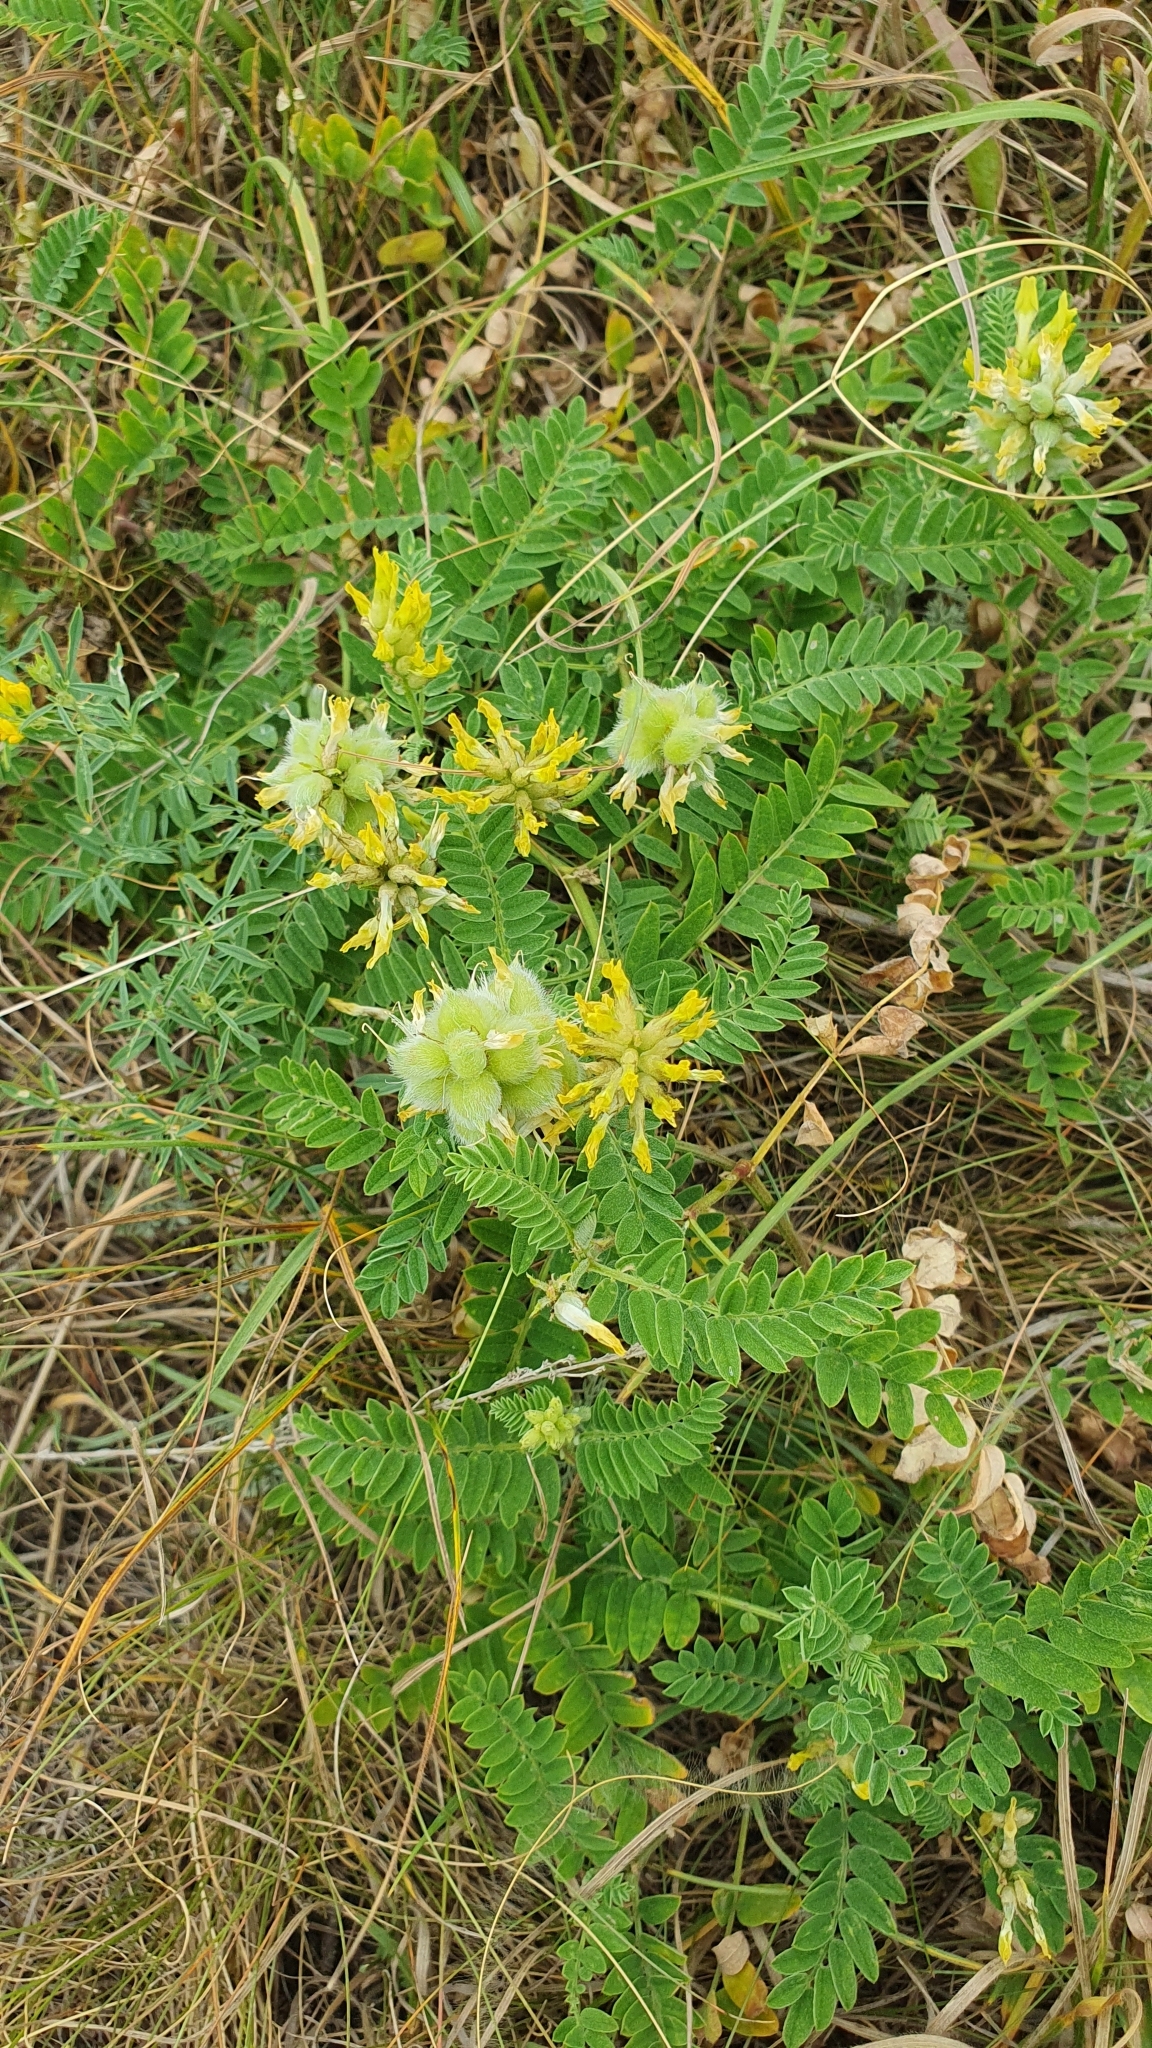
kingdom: Plantae
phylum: Tracheophyta
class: Magnoliopsida
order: Fabales
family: Fabaceae
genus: Astragalus
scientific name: Astragalus cicer
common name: Chick-pea milk-vetch
